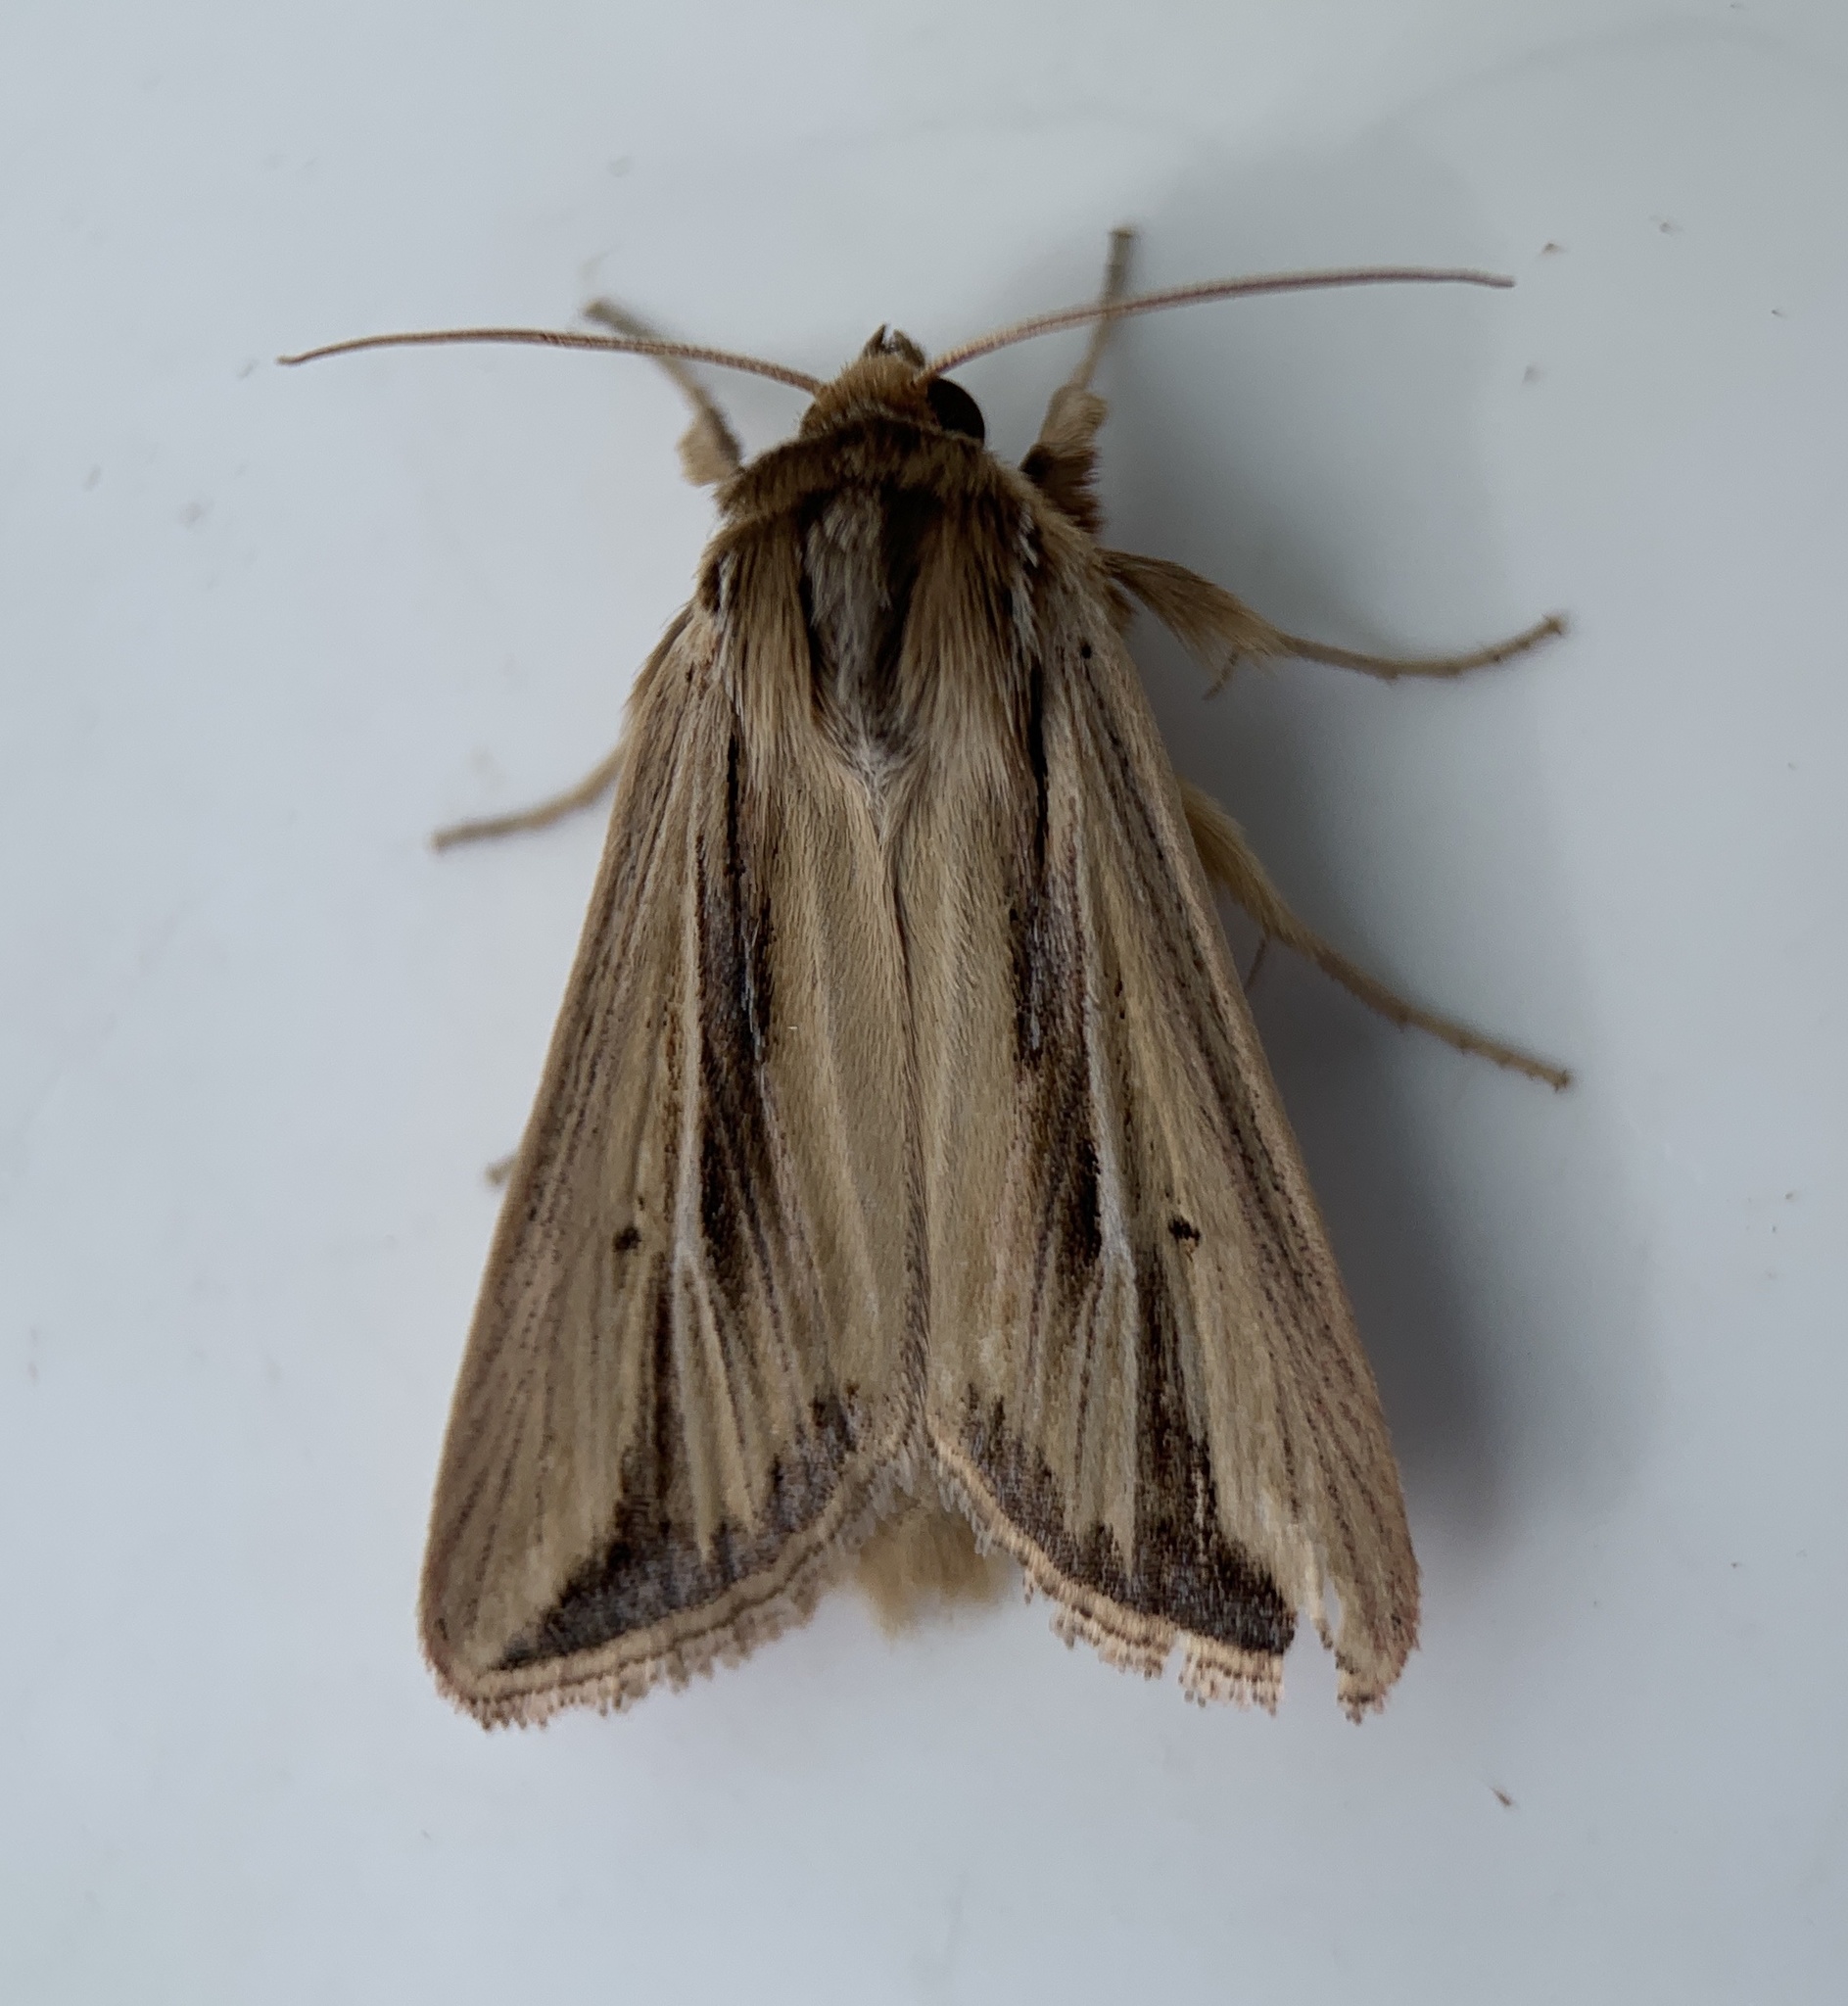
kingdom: Animalia
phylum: Arthropoda
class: Insecta
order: Lepidoptera
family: Noctuidae
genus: Dargida
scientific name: Dargida diffusa
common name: Wheat head armyworm
